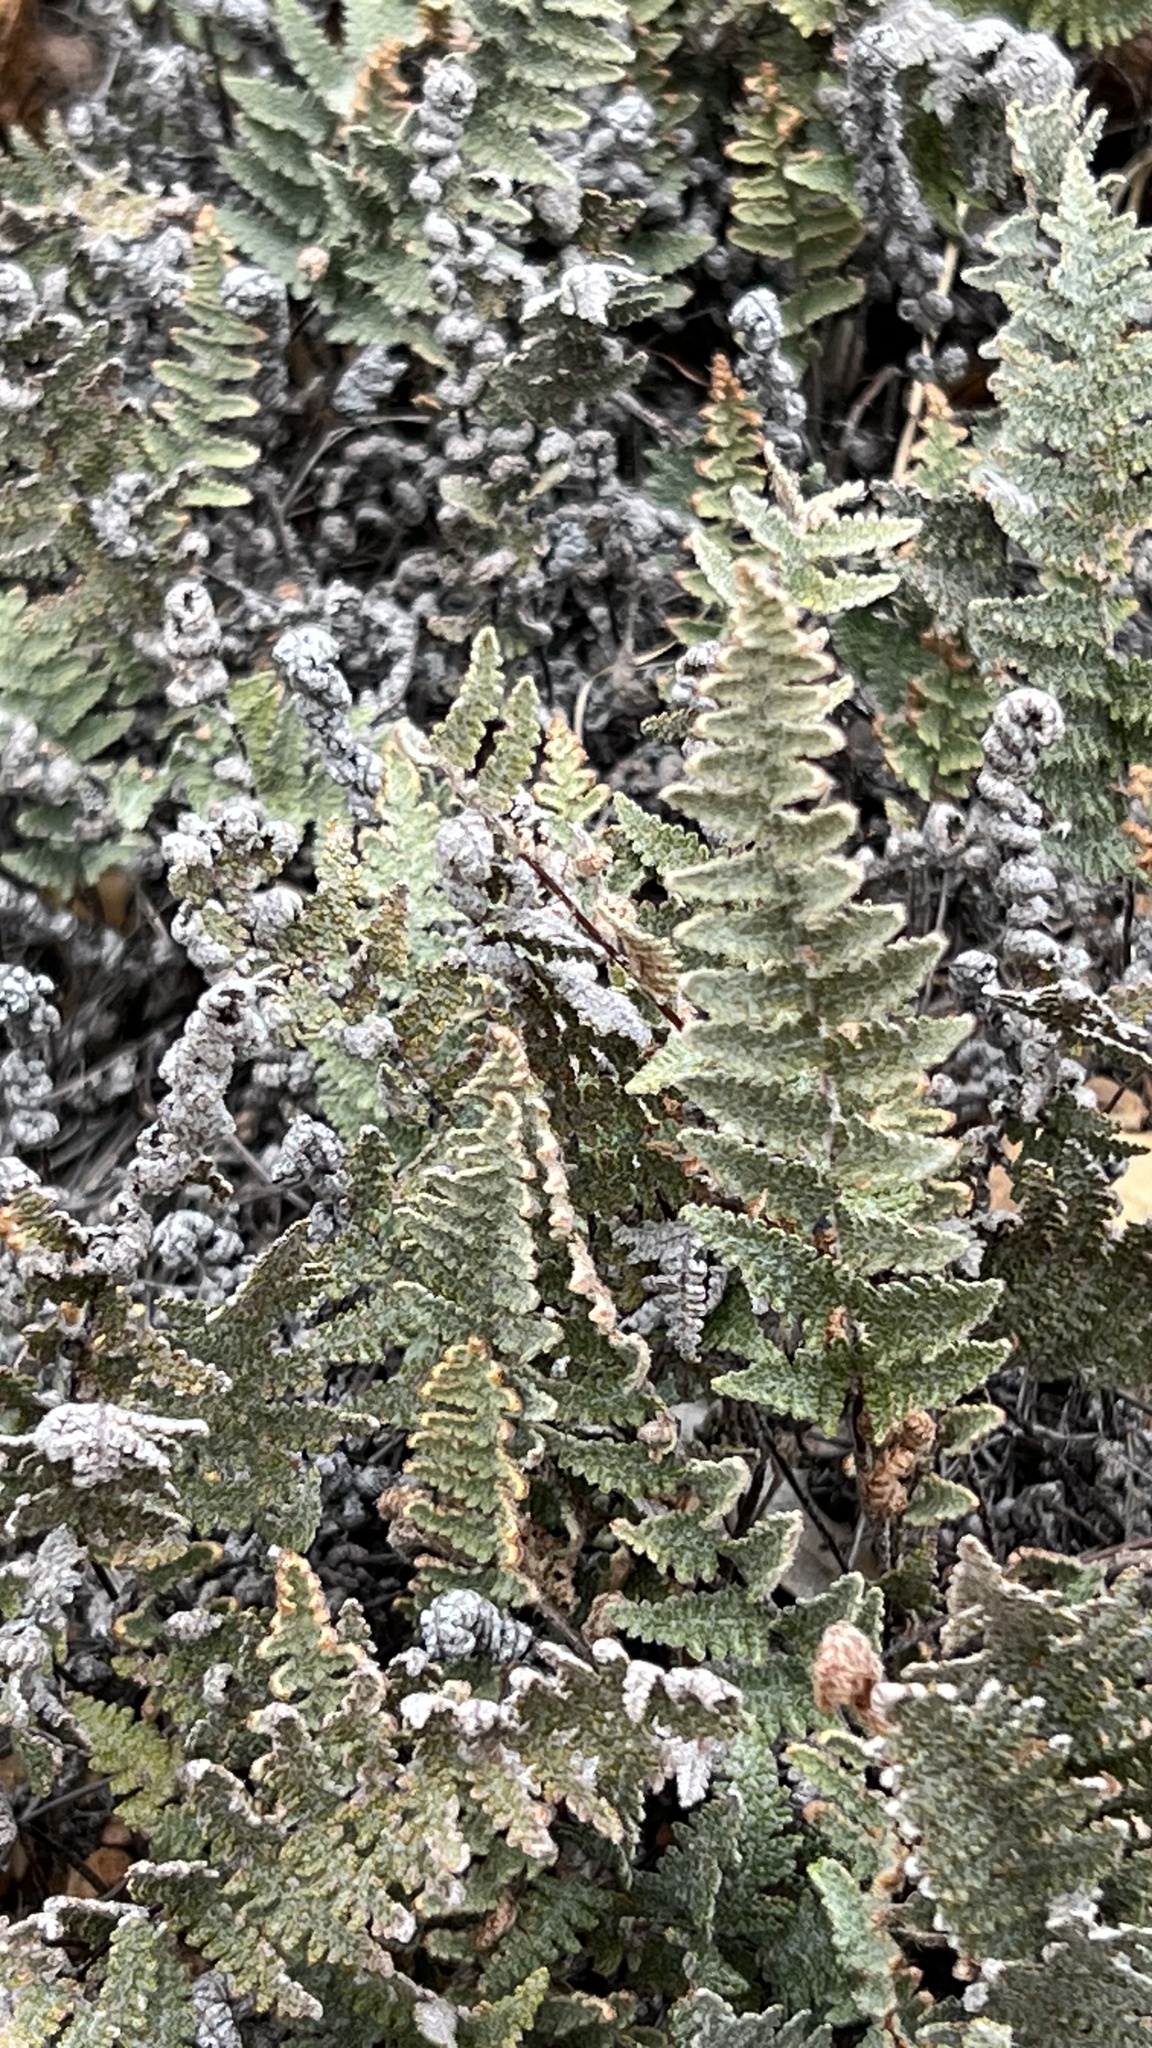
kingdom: Plantae
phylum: Tracheophyta
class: Polypodiopsida
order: Polypodiales
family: Pteridaceae
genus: Myriopteris
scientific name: Myriopteris lindheimeri
